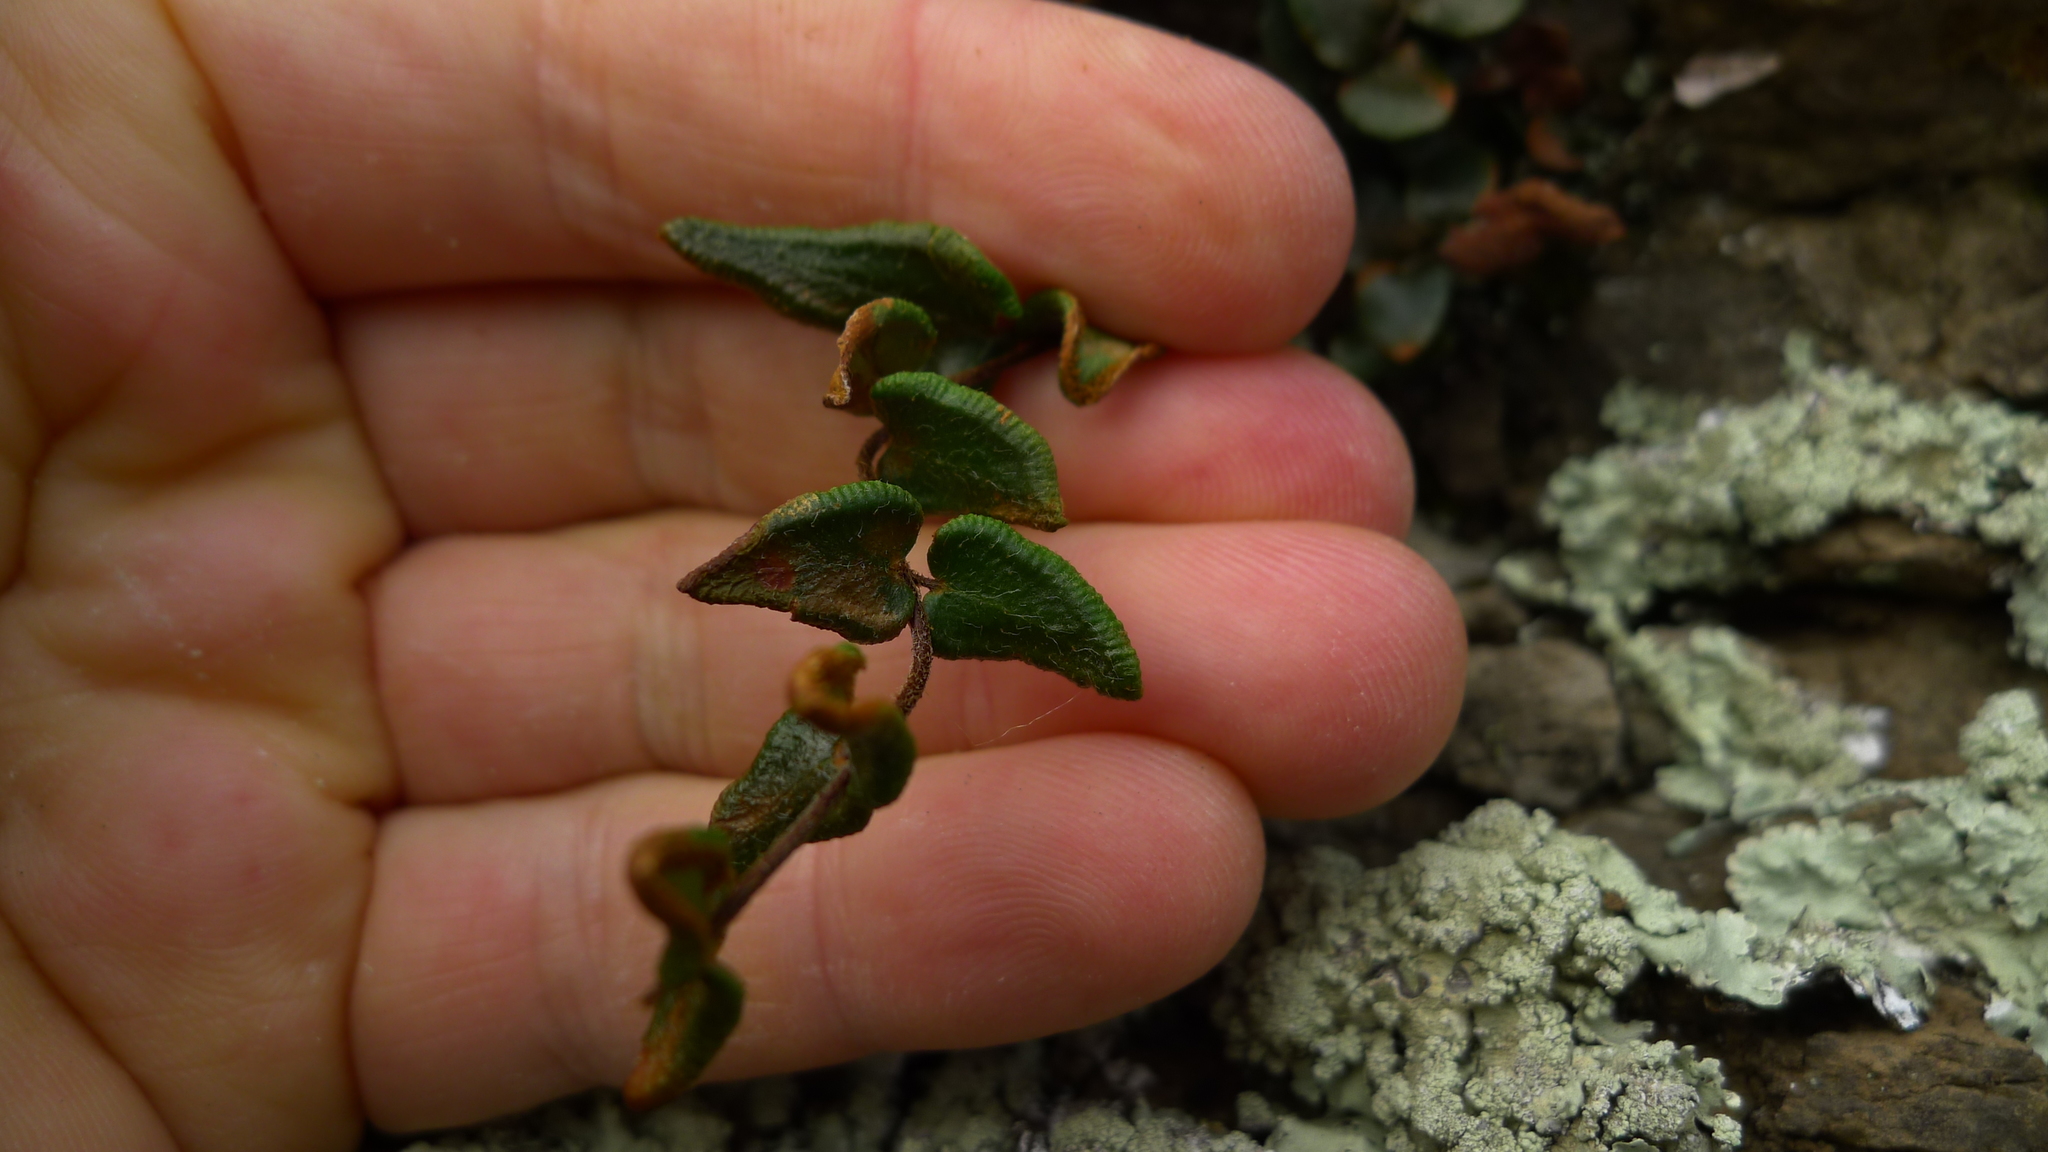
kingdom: Plantae
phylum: Tracheophyta
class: Polypodiopsida
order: Polypodiales
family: Pteridaceae
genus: Pellaea
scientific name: Pellaea calidirupium
